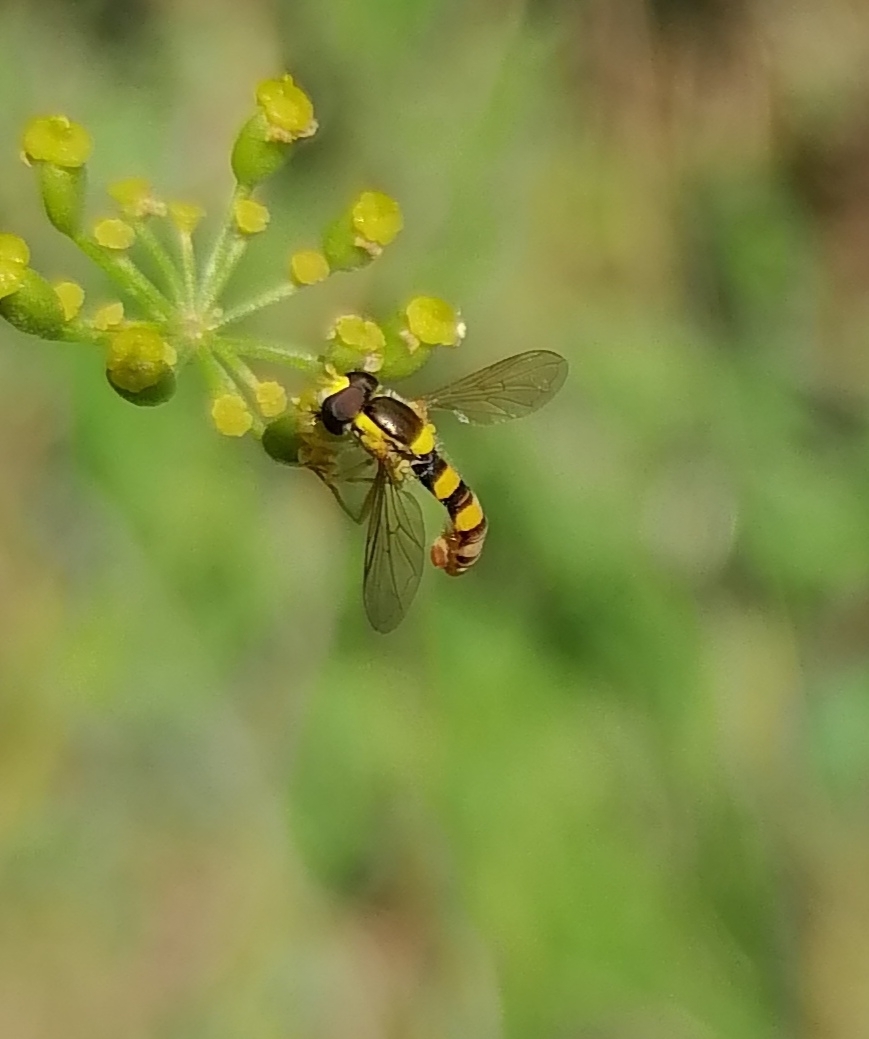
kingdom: Animalia
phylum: Arthropoda
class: Insecta
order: Diptera
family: Syrphidae
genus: Sphaerophoria
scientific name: Sphaerophoria scripta
